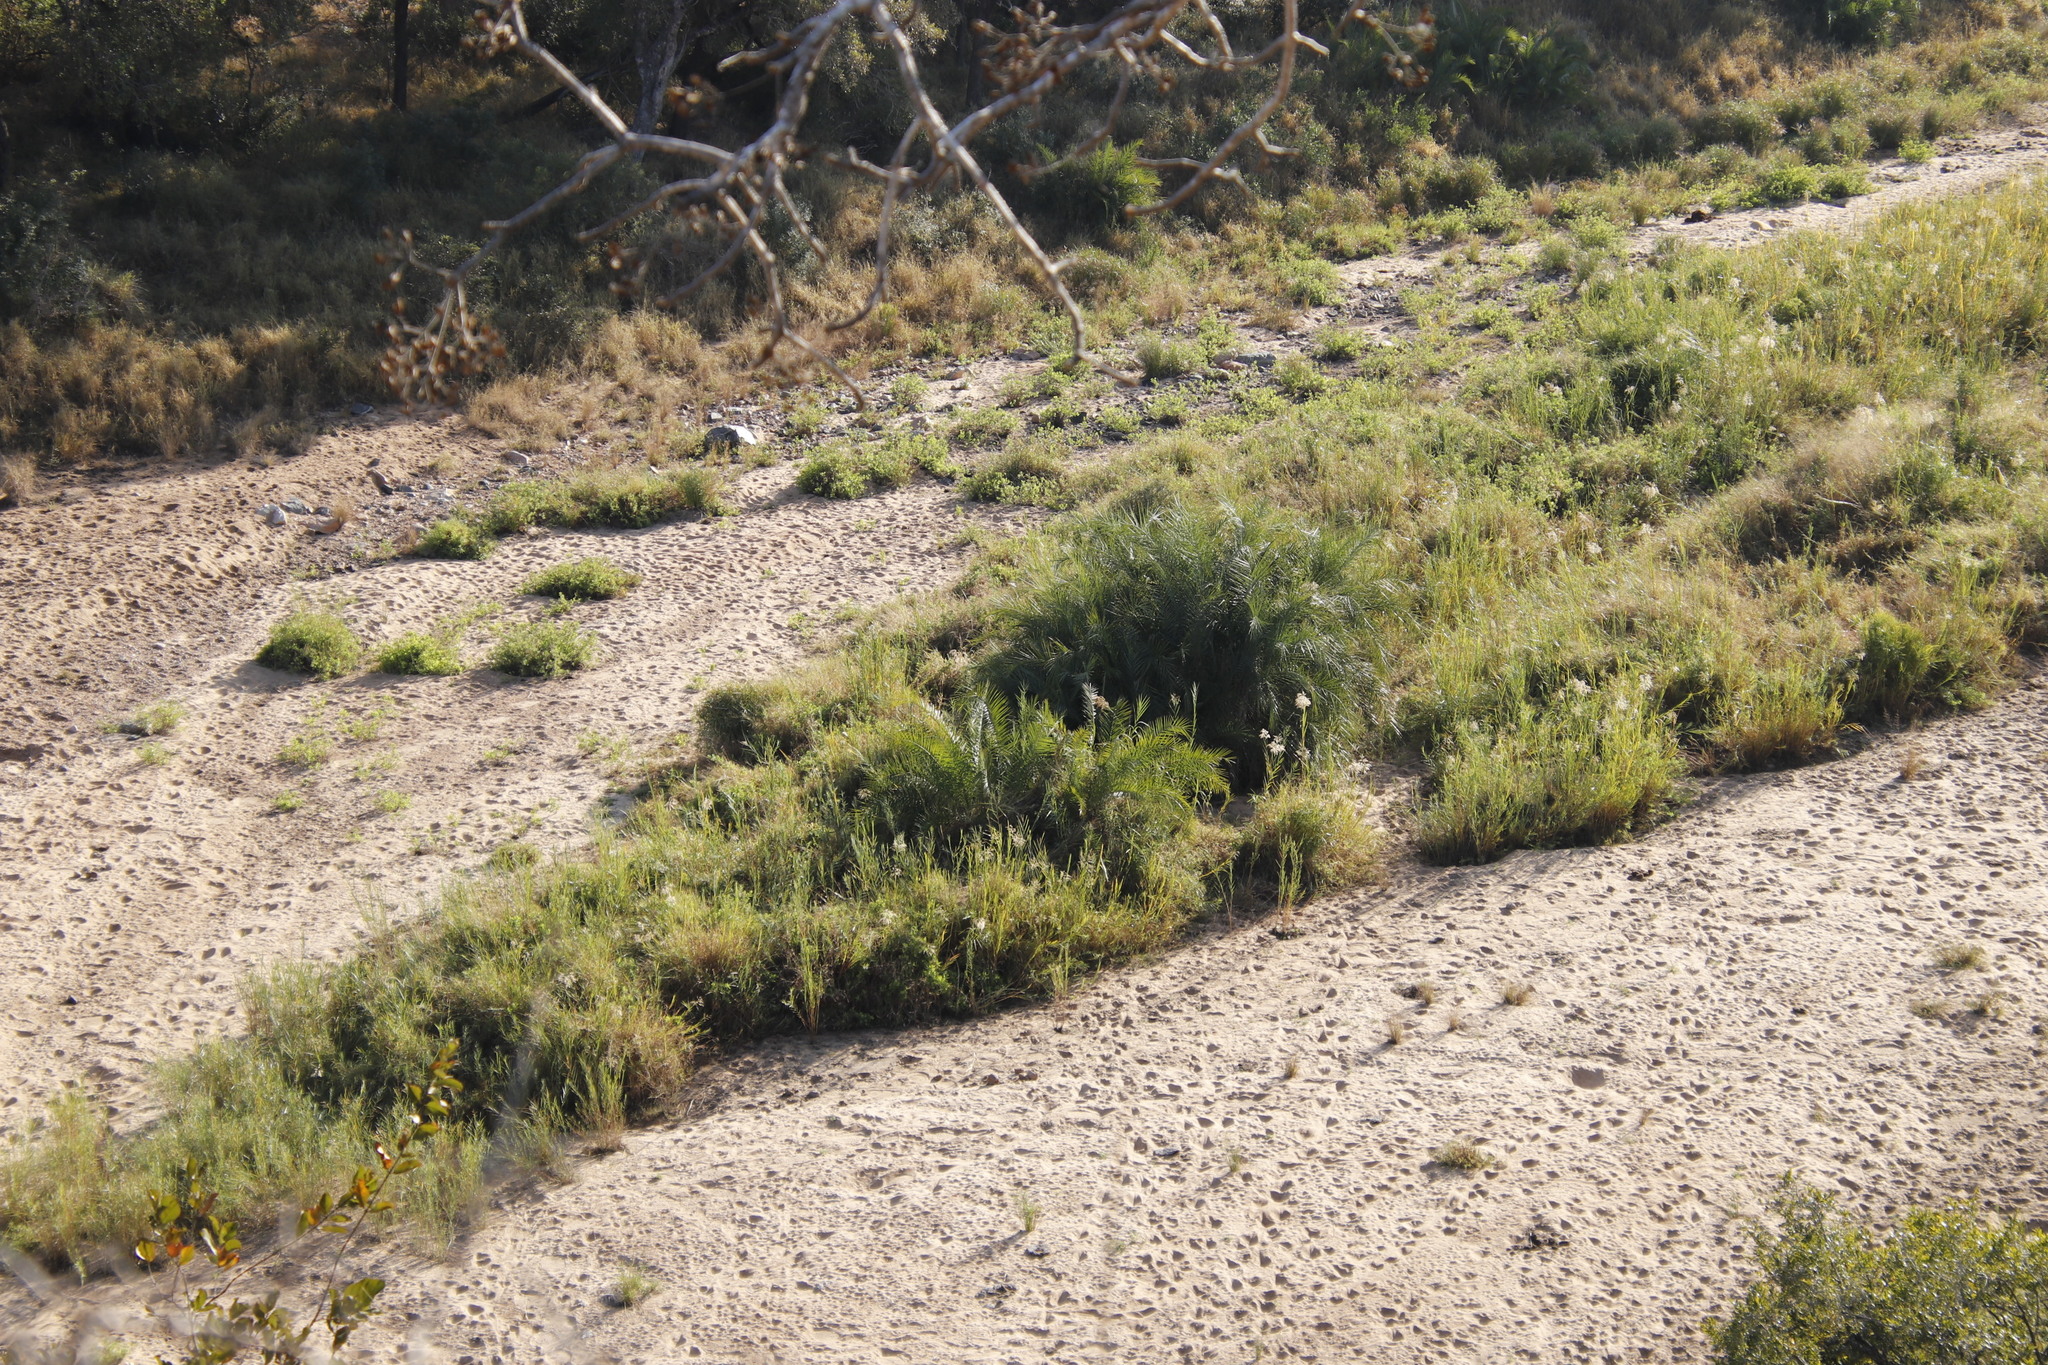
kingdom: Plantae
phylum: Tracheophyta
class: Liliopsida
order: Arecales
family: Arecaceae
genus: Phoenix
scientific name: Phoenix reclinata
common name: Senegal date palm
